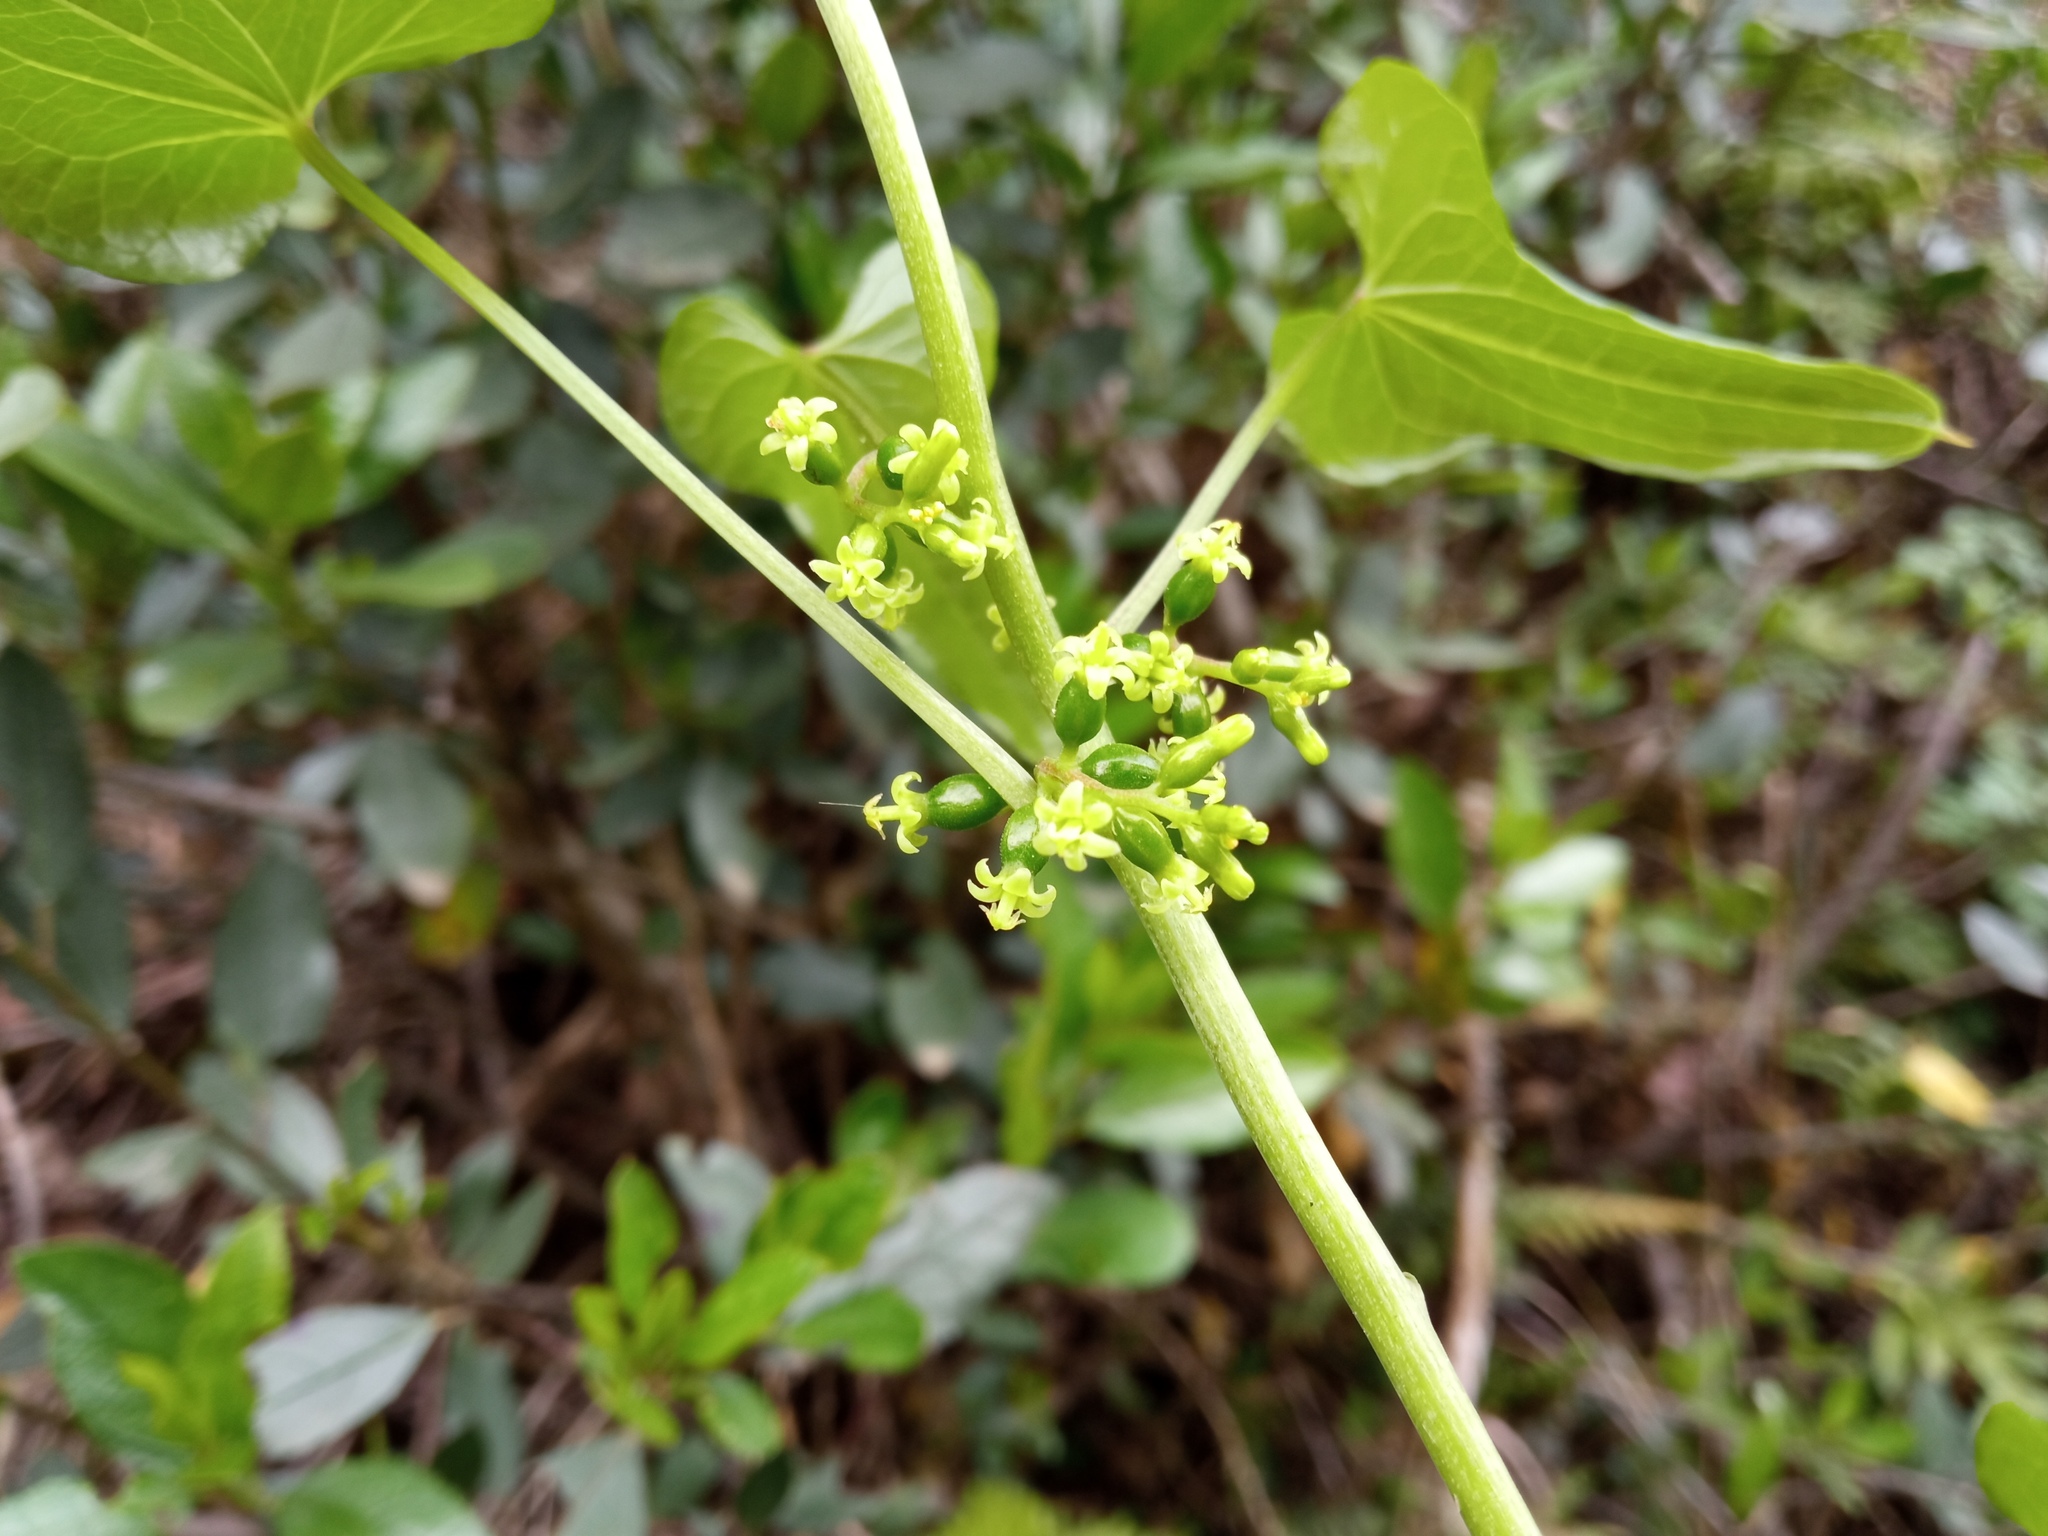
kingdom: Plantae
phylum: Tracheophyta
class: Liliopsida
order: Dioscoreales
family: Dioscoreaceae
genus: Dioscorea
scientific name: Dioscorea communis
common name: Black-bindweed
